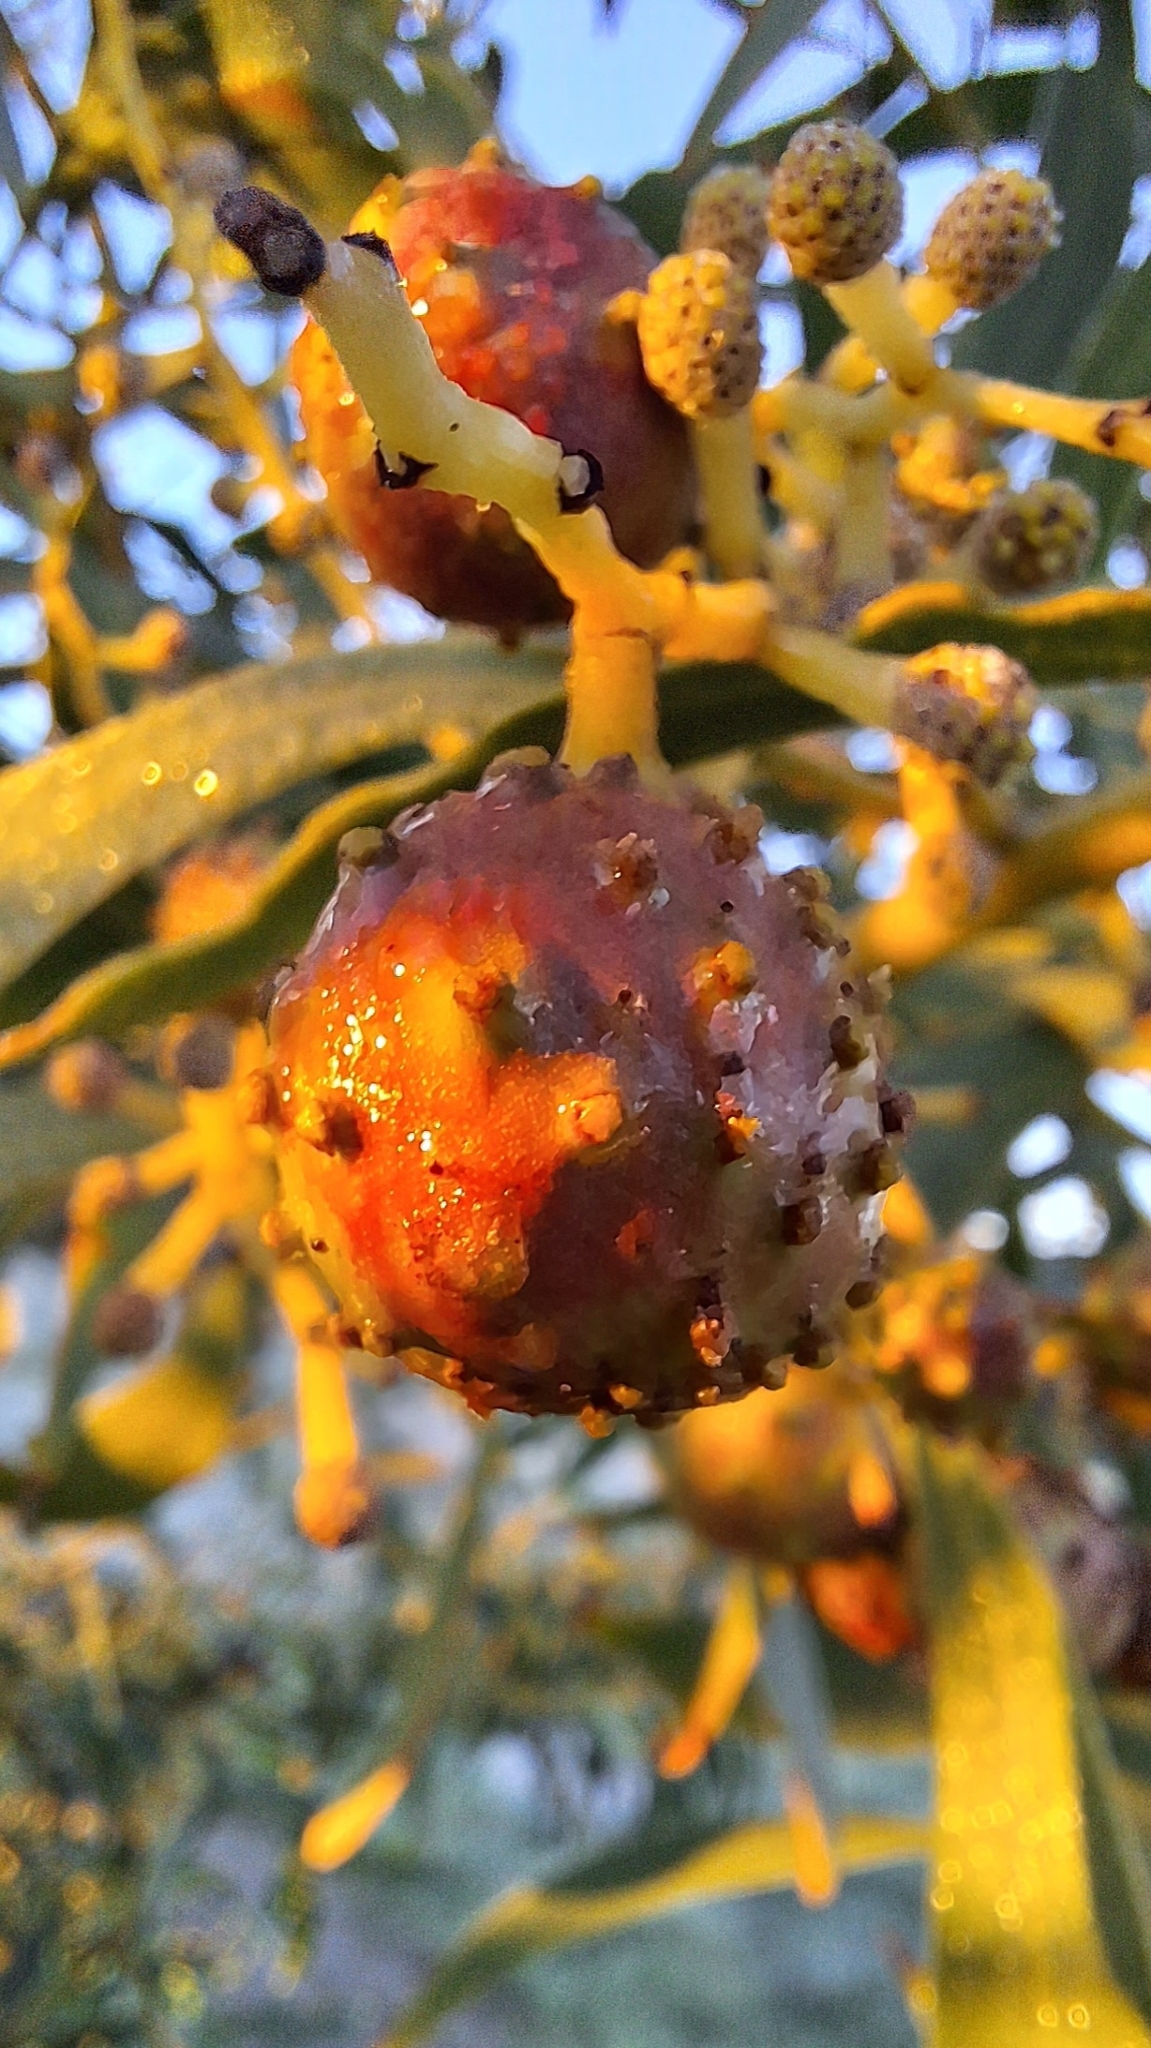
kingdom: Animalia
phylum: Arthropoda
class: Insecta
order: Hymenoptera
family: Pteromalidae
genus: Trichilogaster
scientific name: Trichilogaster signiventris
